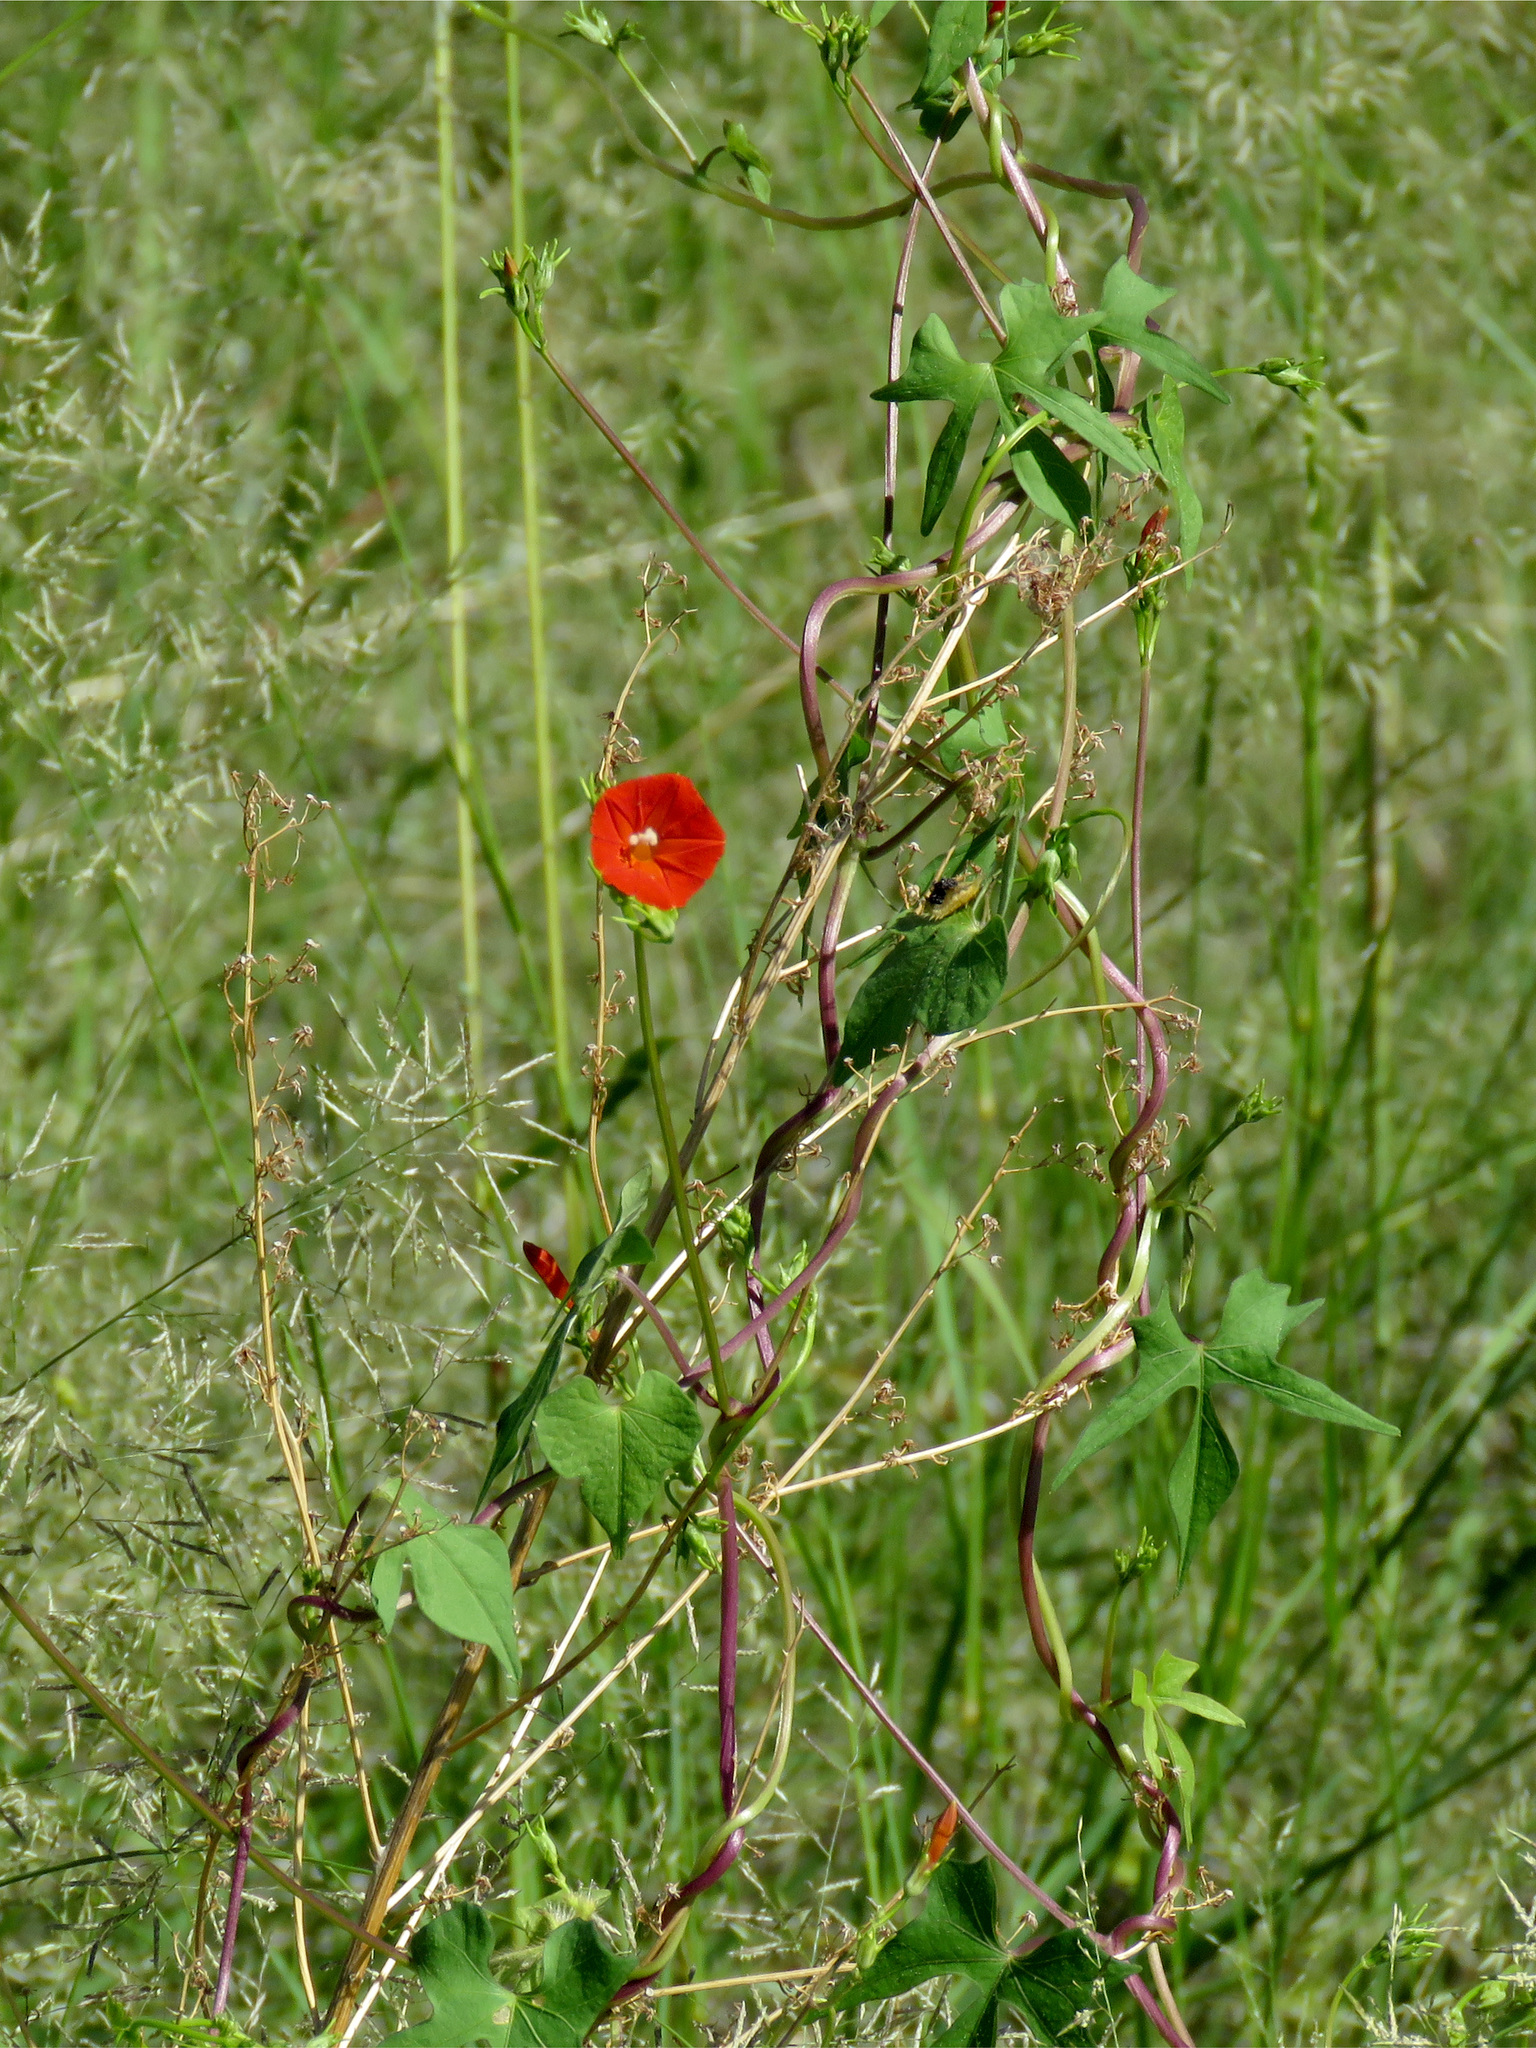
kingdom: Plantae
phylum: Tracheophyta
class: Magnoliopsida
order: Solanales
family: Convolvulaceae
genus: Ipomoea
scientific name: Ipomoea cristulata
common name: Trans-pecos morning-glory
